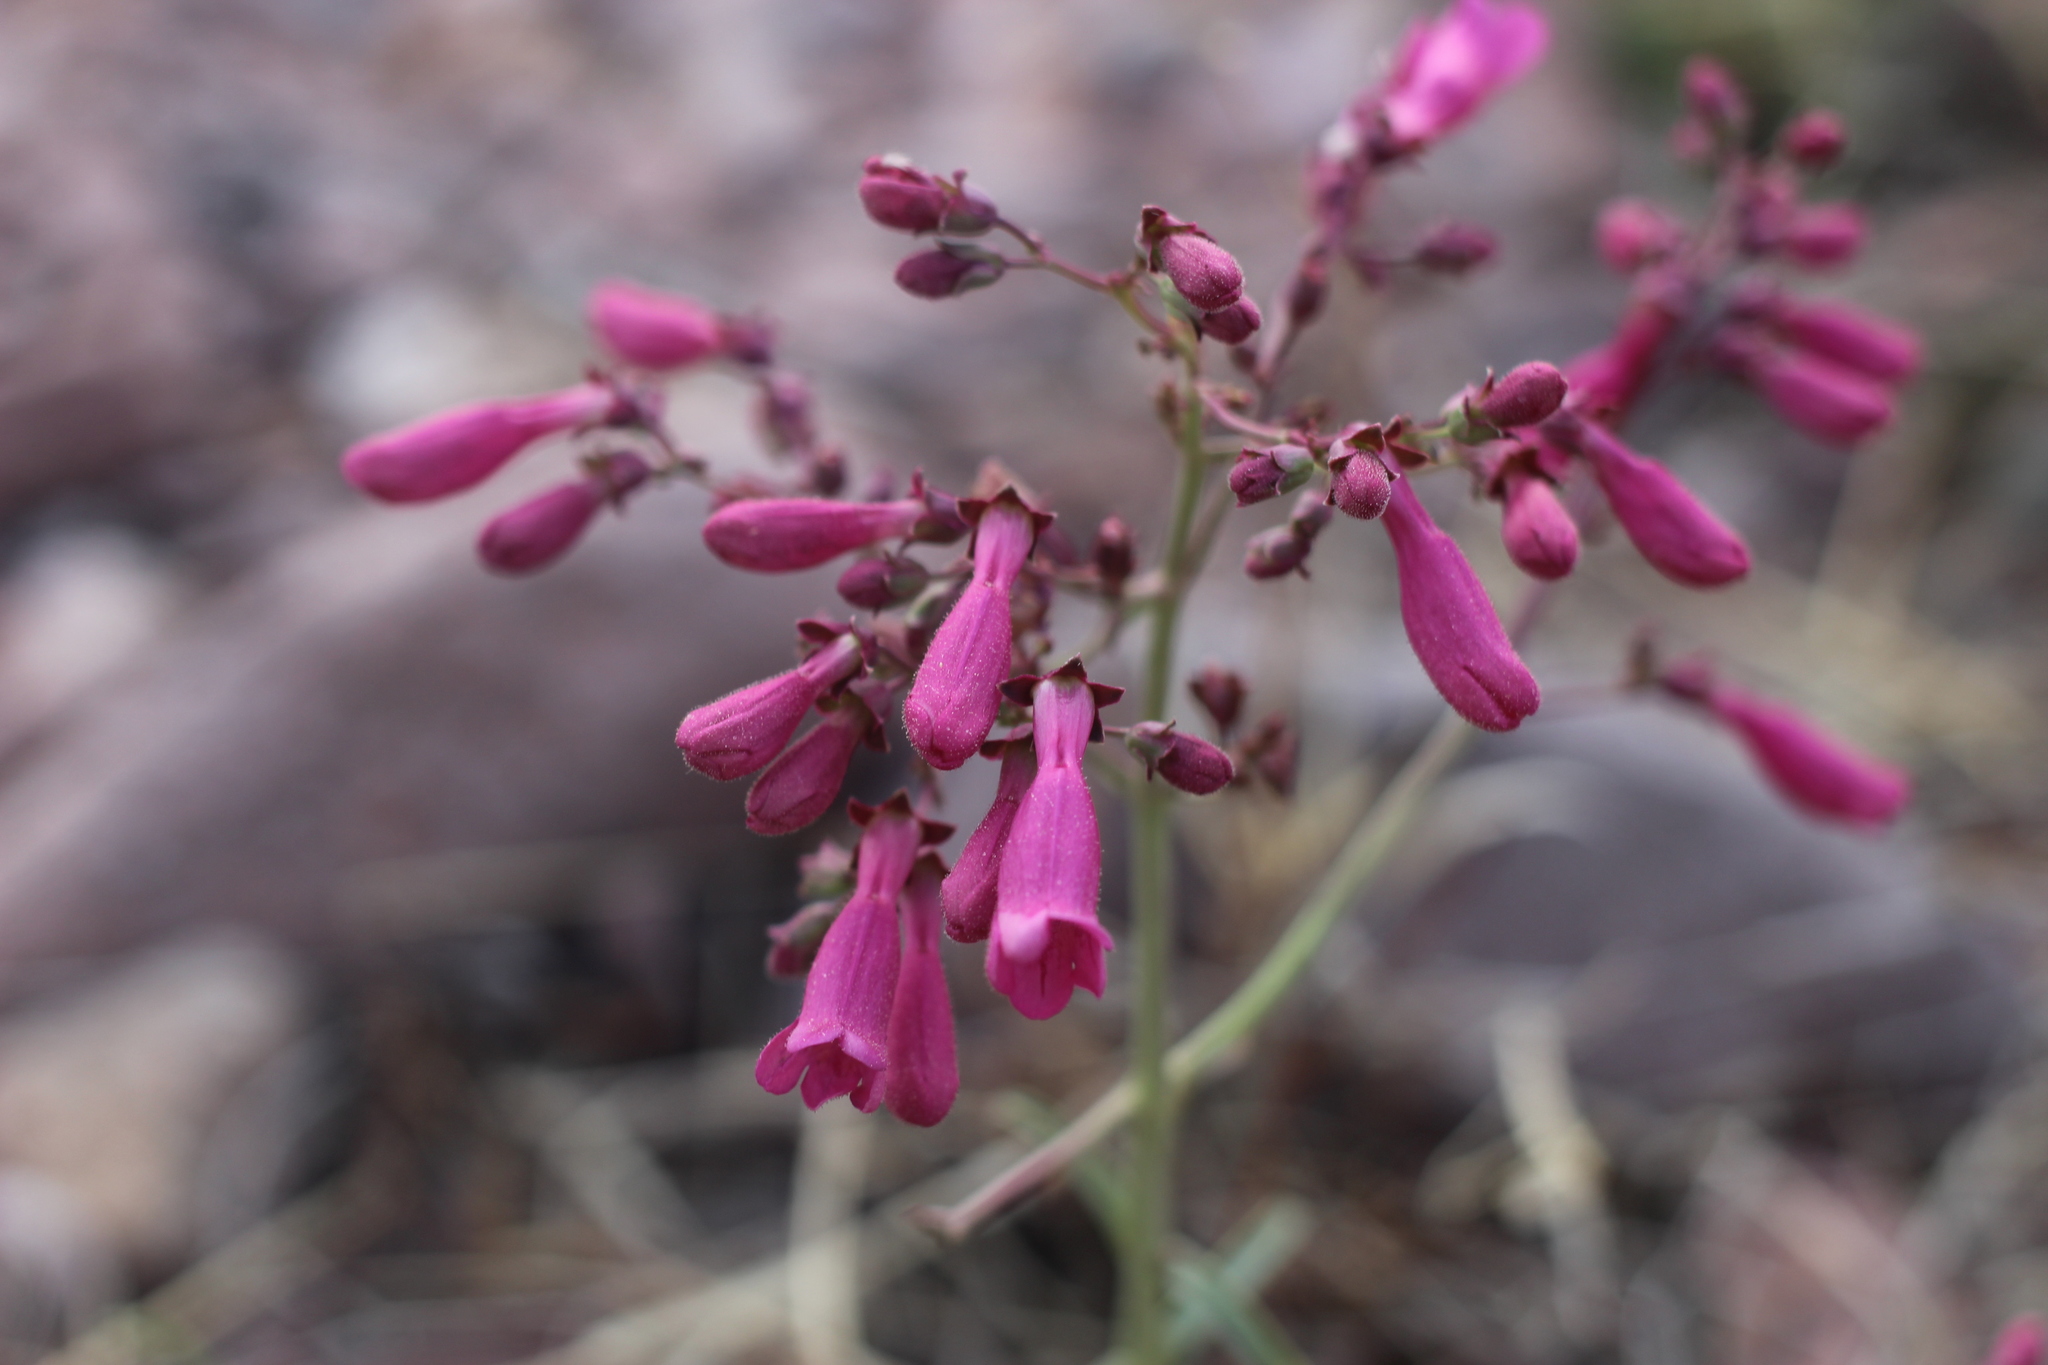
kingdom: Plantae
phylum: Tracheophyta
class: Magnoliopsida
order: Lamiales
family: Plantaginaceae
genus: Penstemon
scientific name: Penstemon parryi
